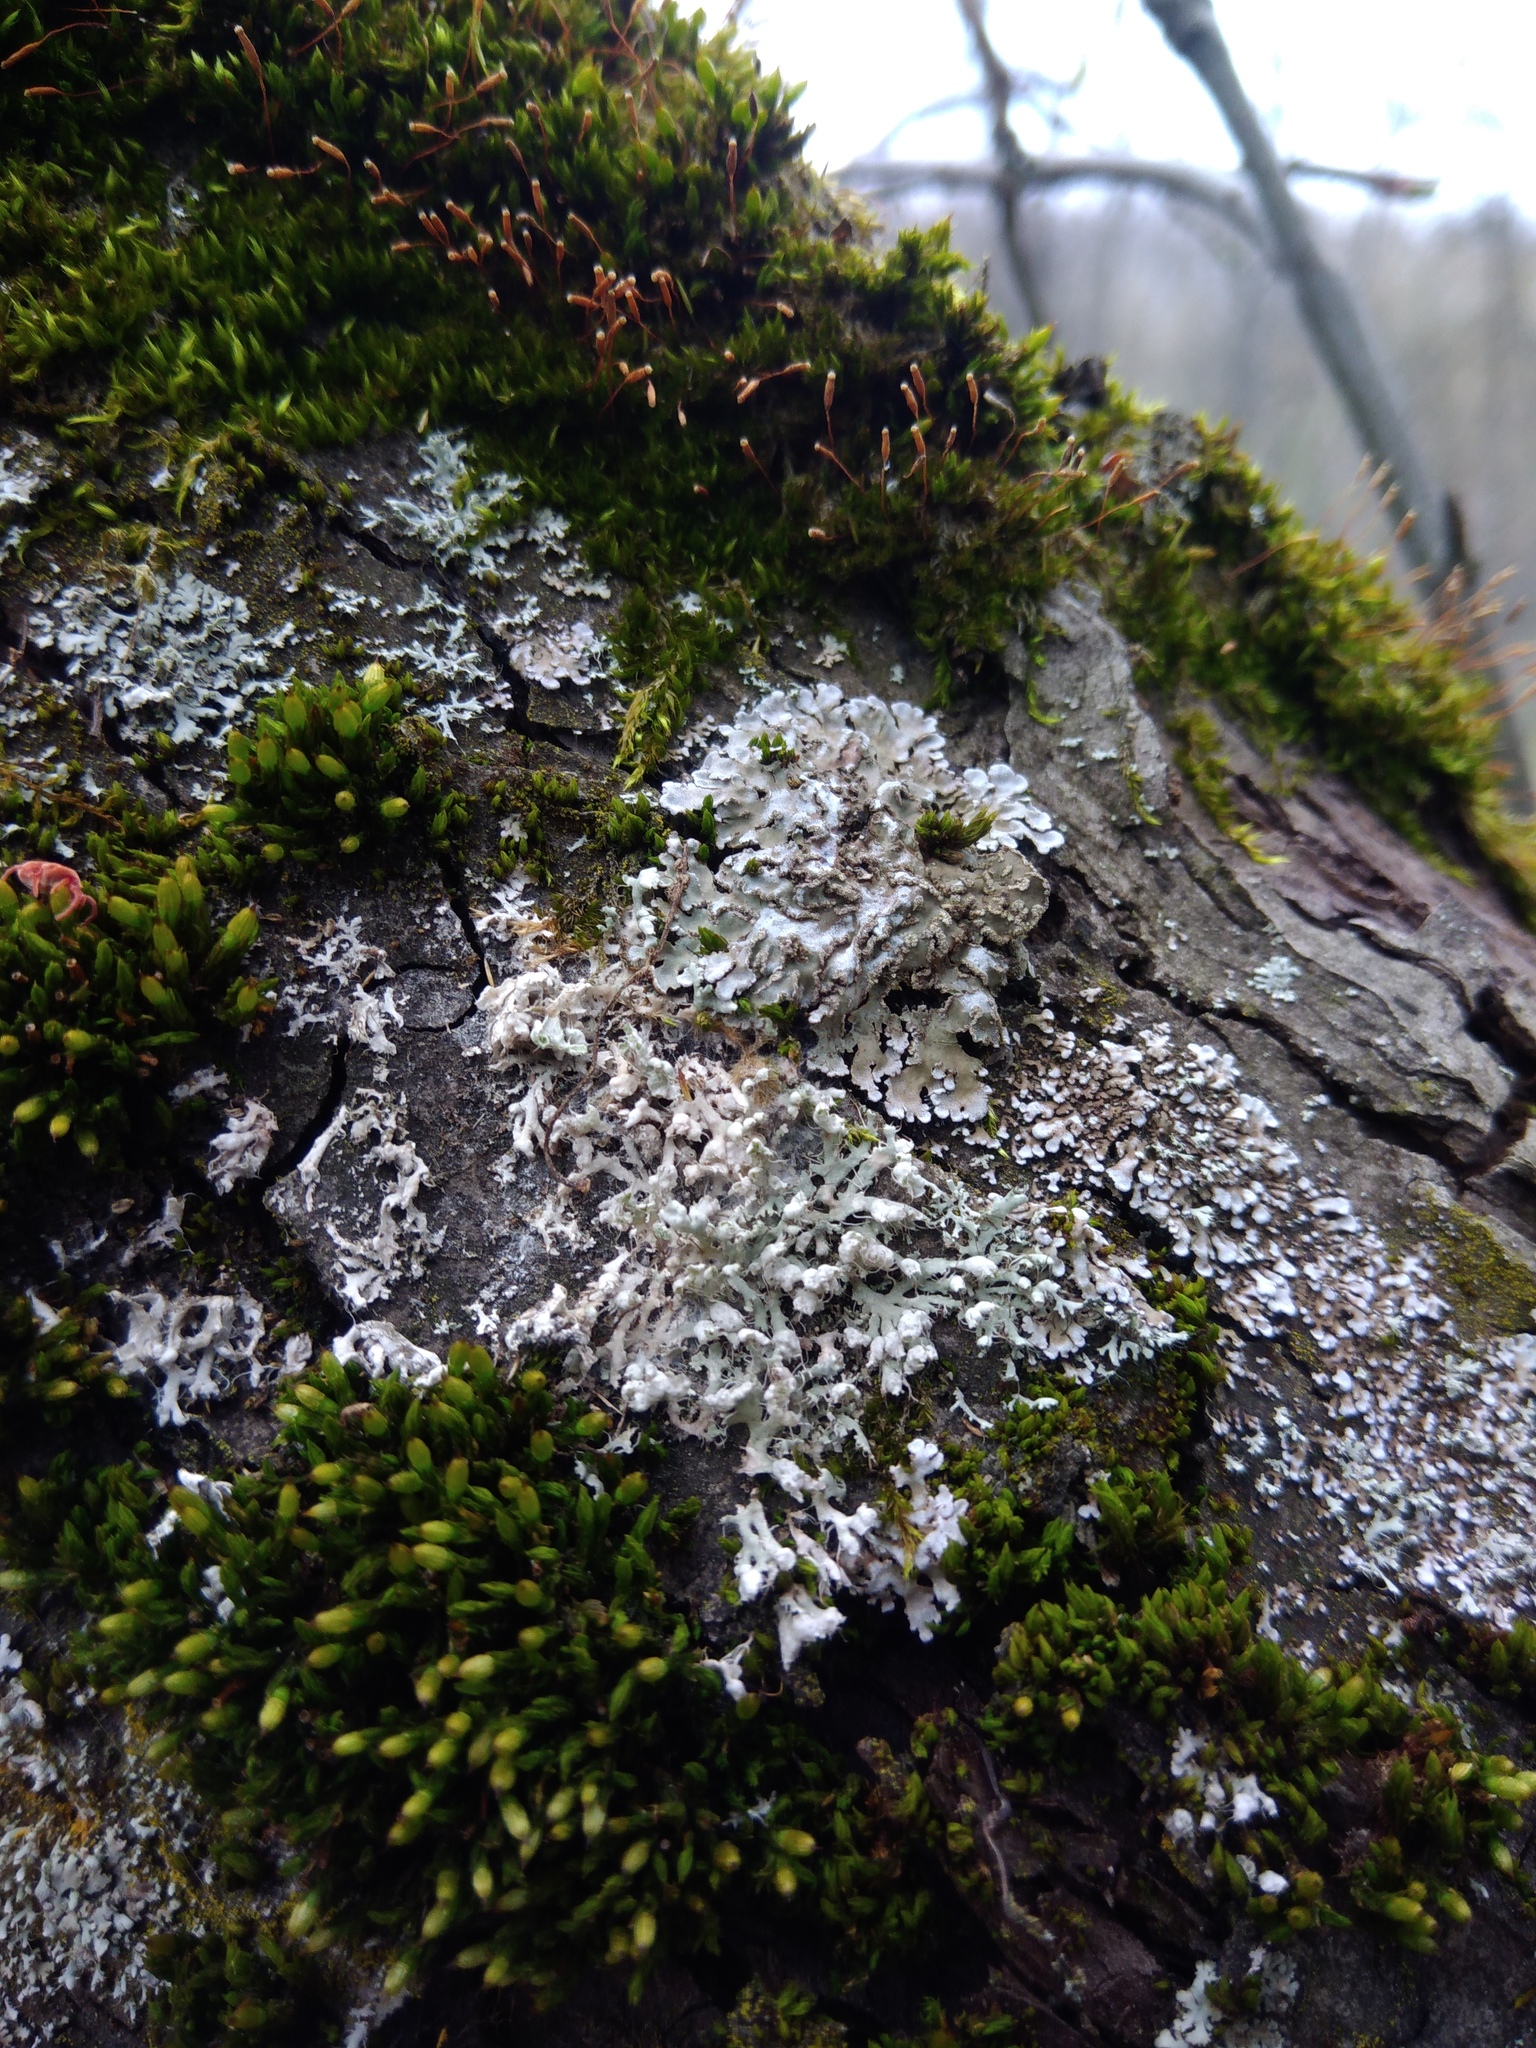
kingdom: Fungi
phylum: Ascomycota
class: Lecanoromycetes
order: Caliciales
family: Physciaceae
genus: Physcia
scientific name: Physcia adscendens
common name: Hooded rosette lichen
